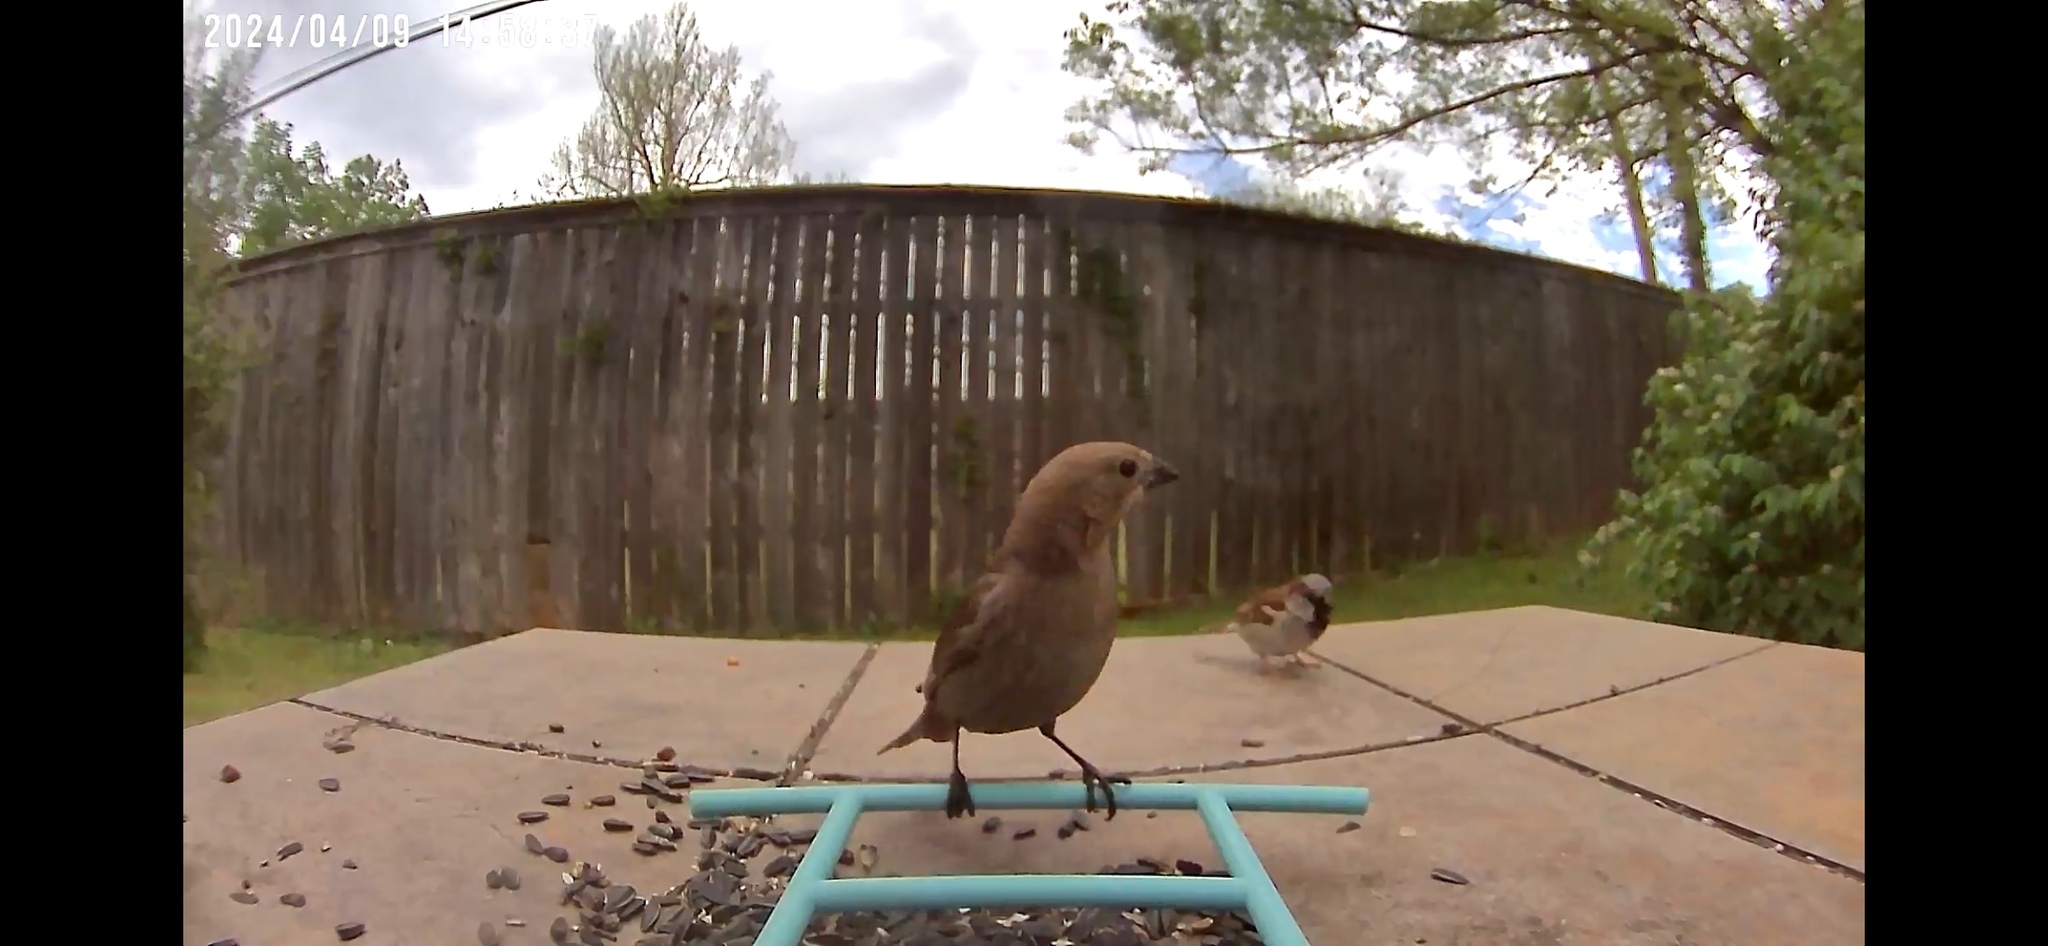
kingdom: Animalia
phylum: Chordata
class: Aves
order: Passeriformes
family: Icteridae
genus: Molothrus
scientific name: Molothrus ater
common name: Brown-headed cowbird
